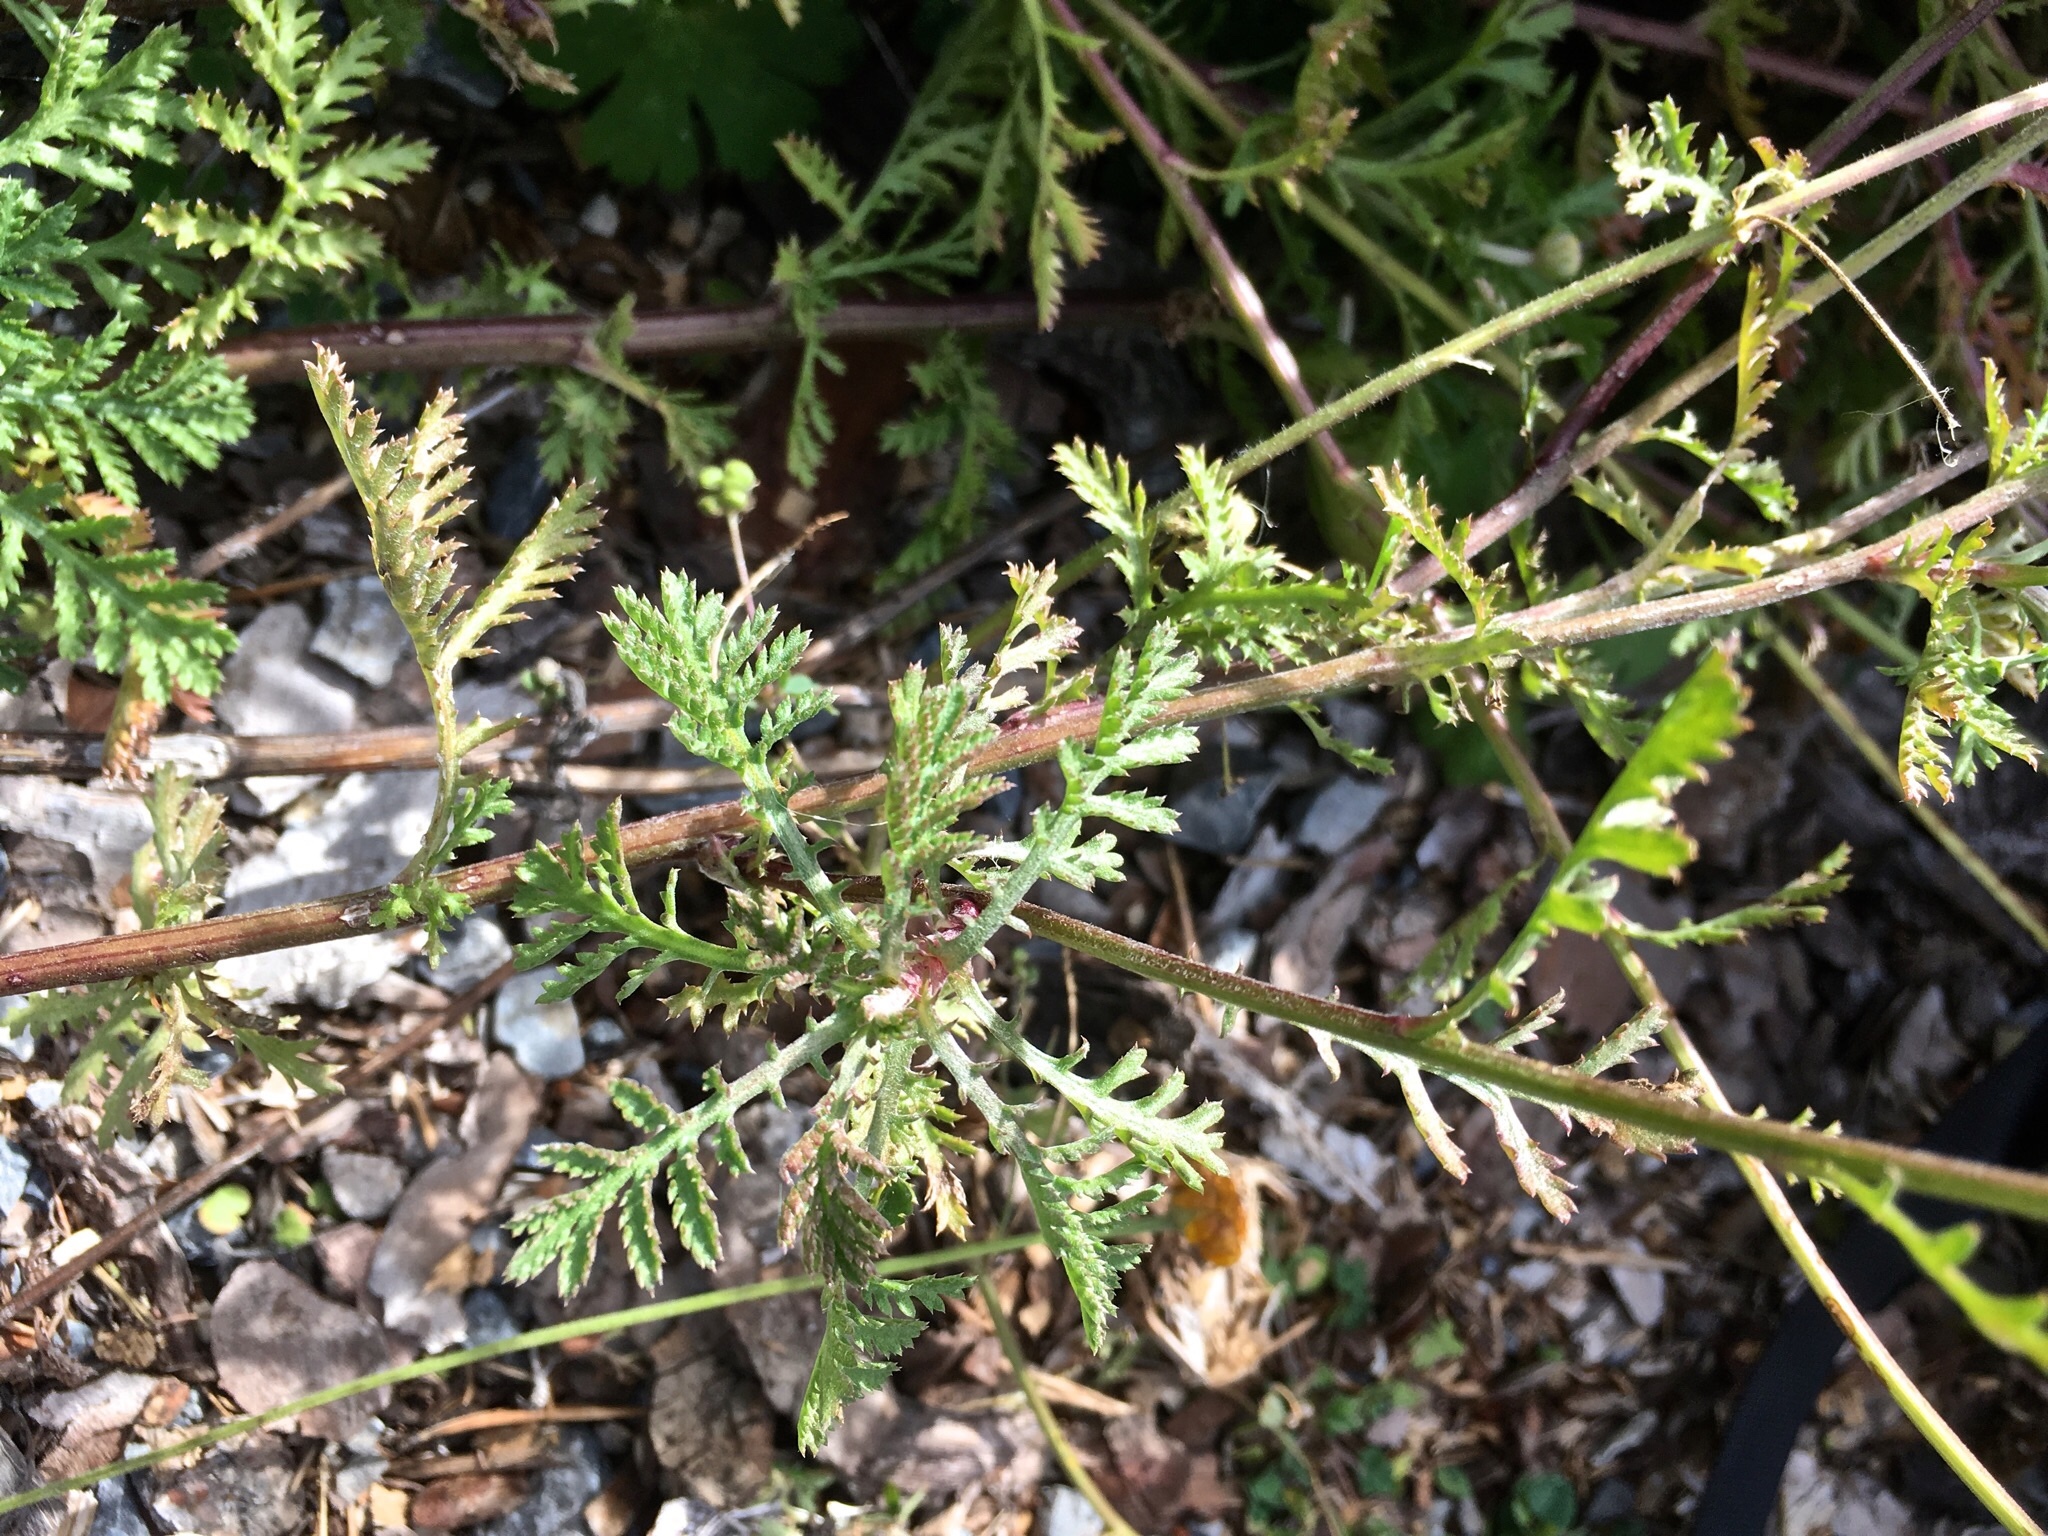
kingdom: Plantae
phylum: Tracheophyta
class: Magnoliopsida
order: Asterales
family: Asteraceae
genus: Cota
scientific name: Cota tinctoria
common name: Golden chamomile
